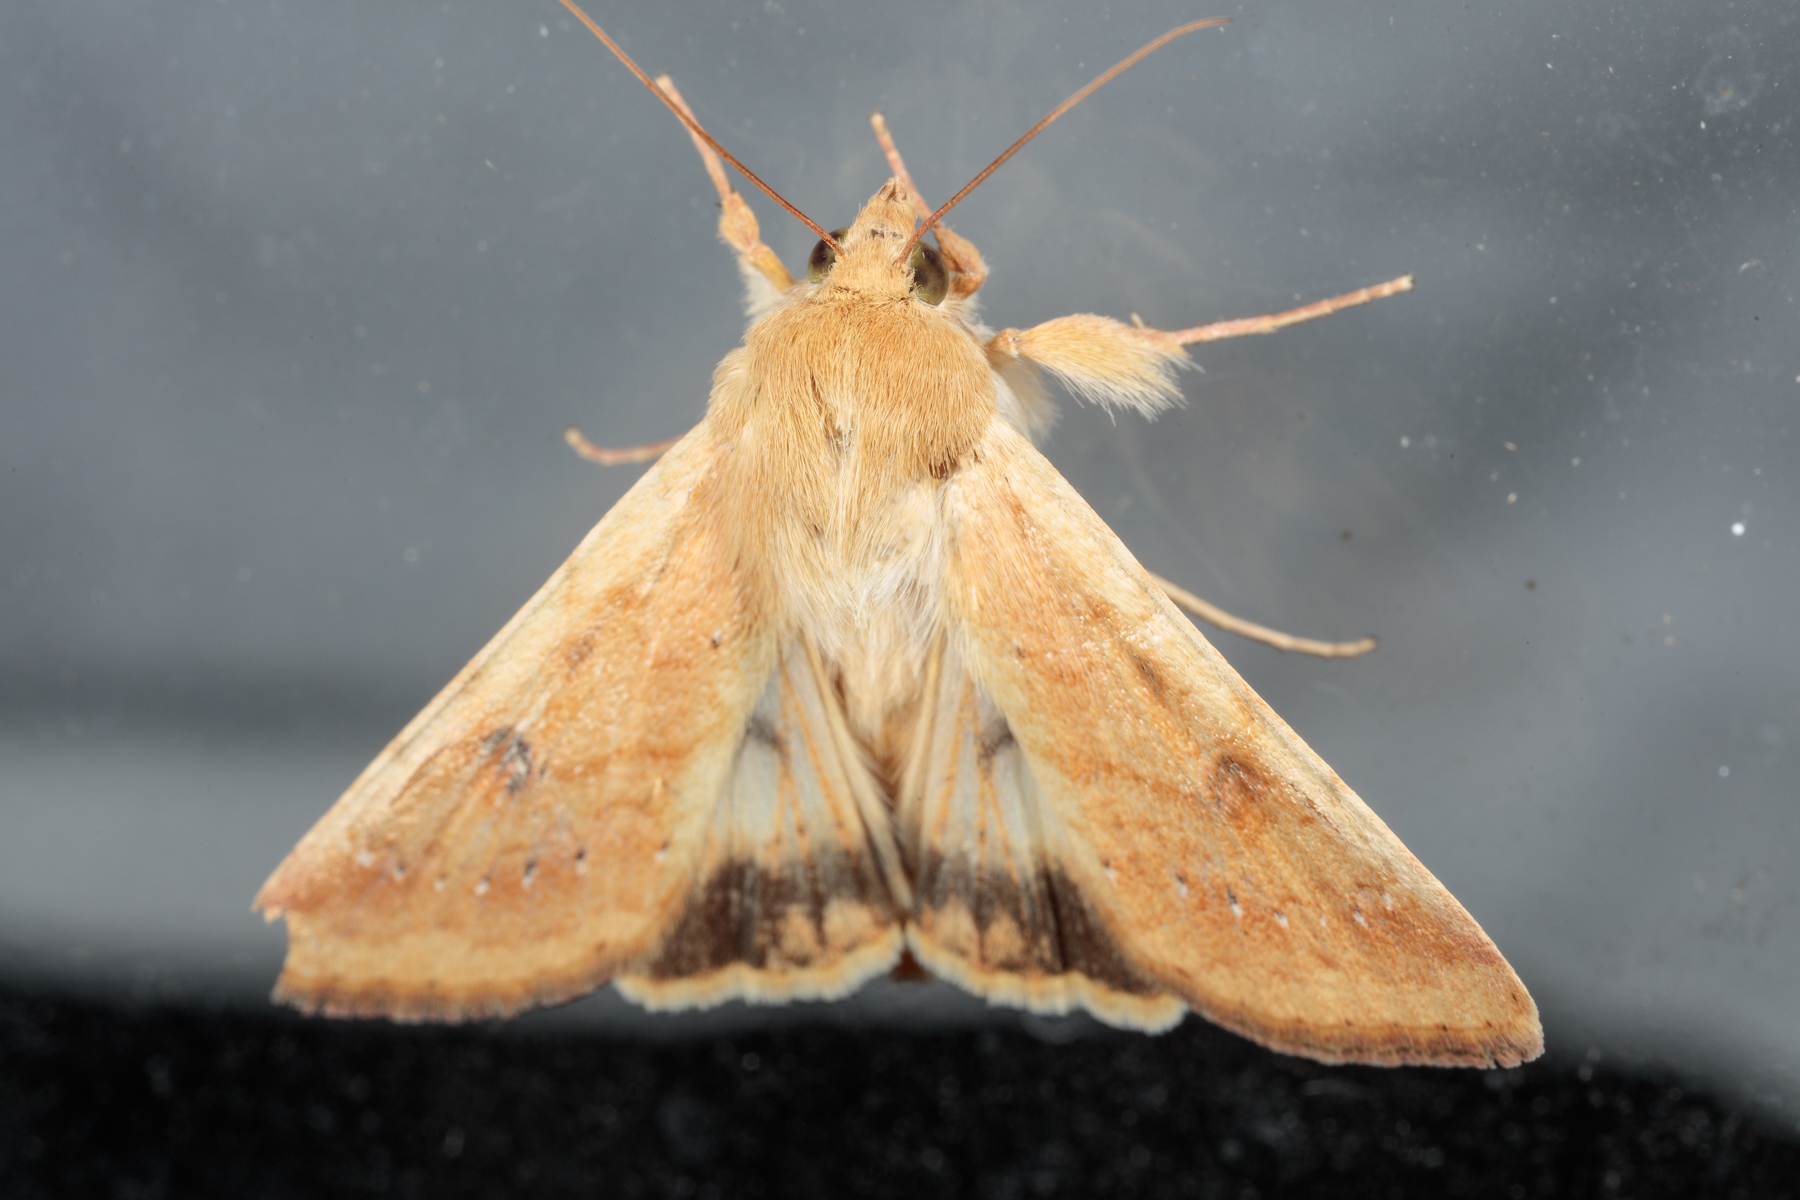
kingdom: Animalia
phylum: Arthropoda
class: Insecta
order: Lepidoptera
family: Noctuidae
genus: Helicoverpa
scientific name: Helicoverpa zea
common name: Bollworm
